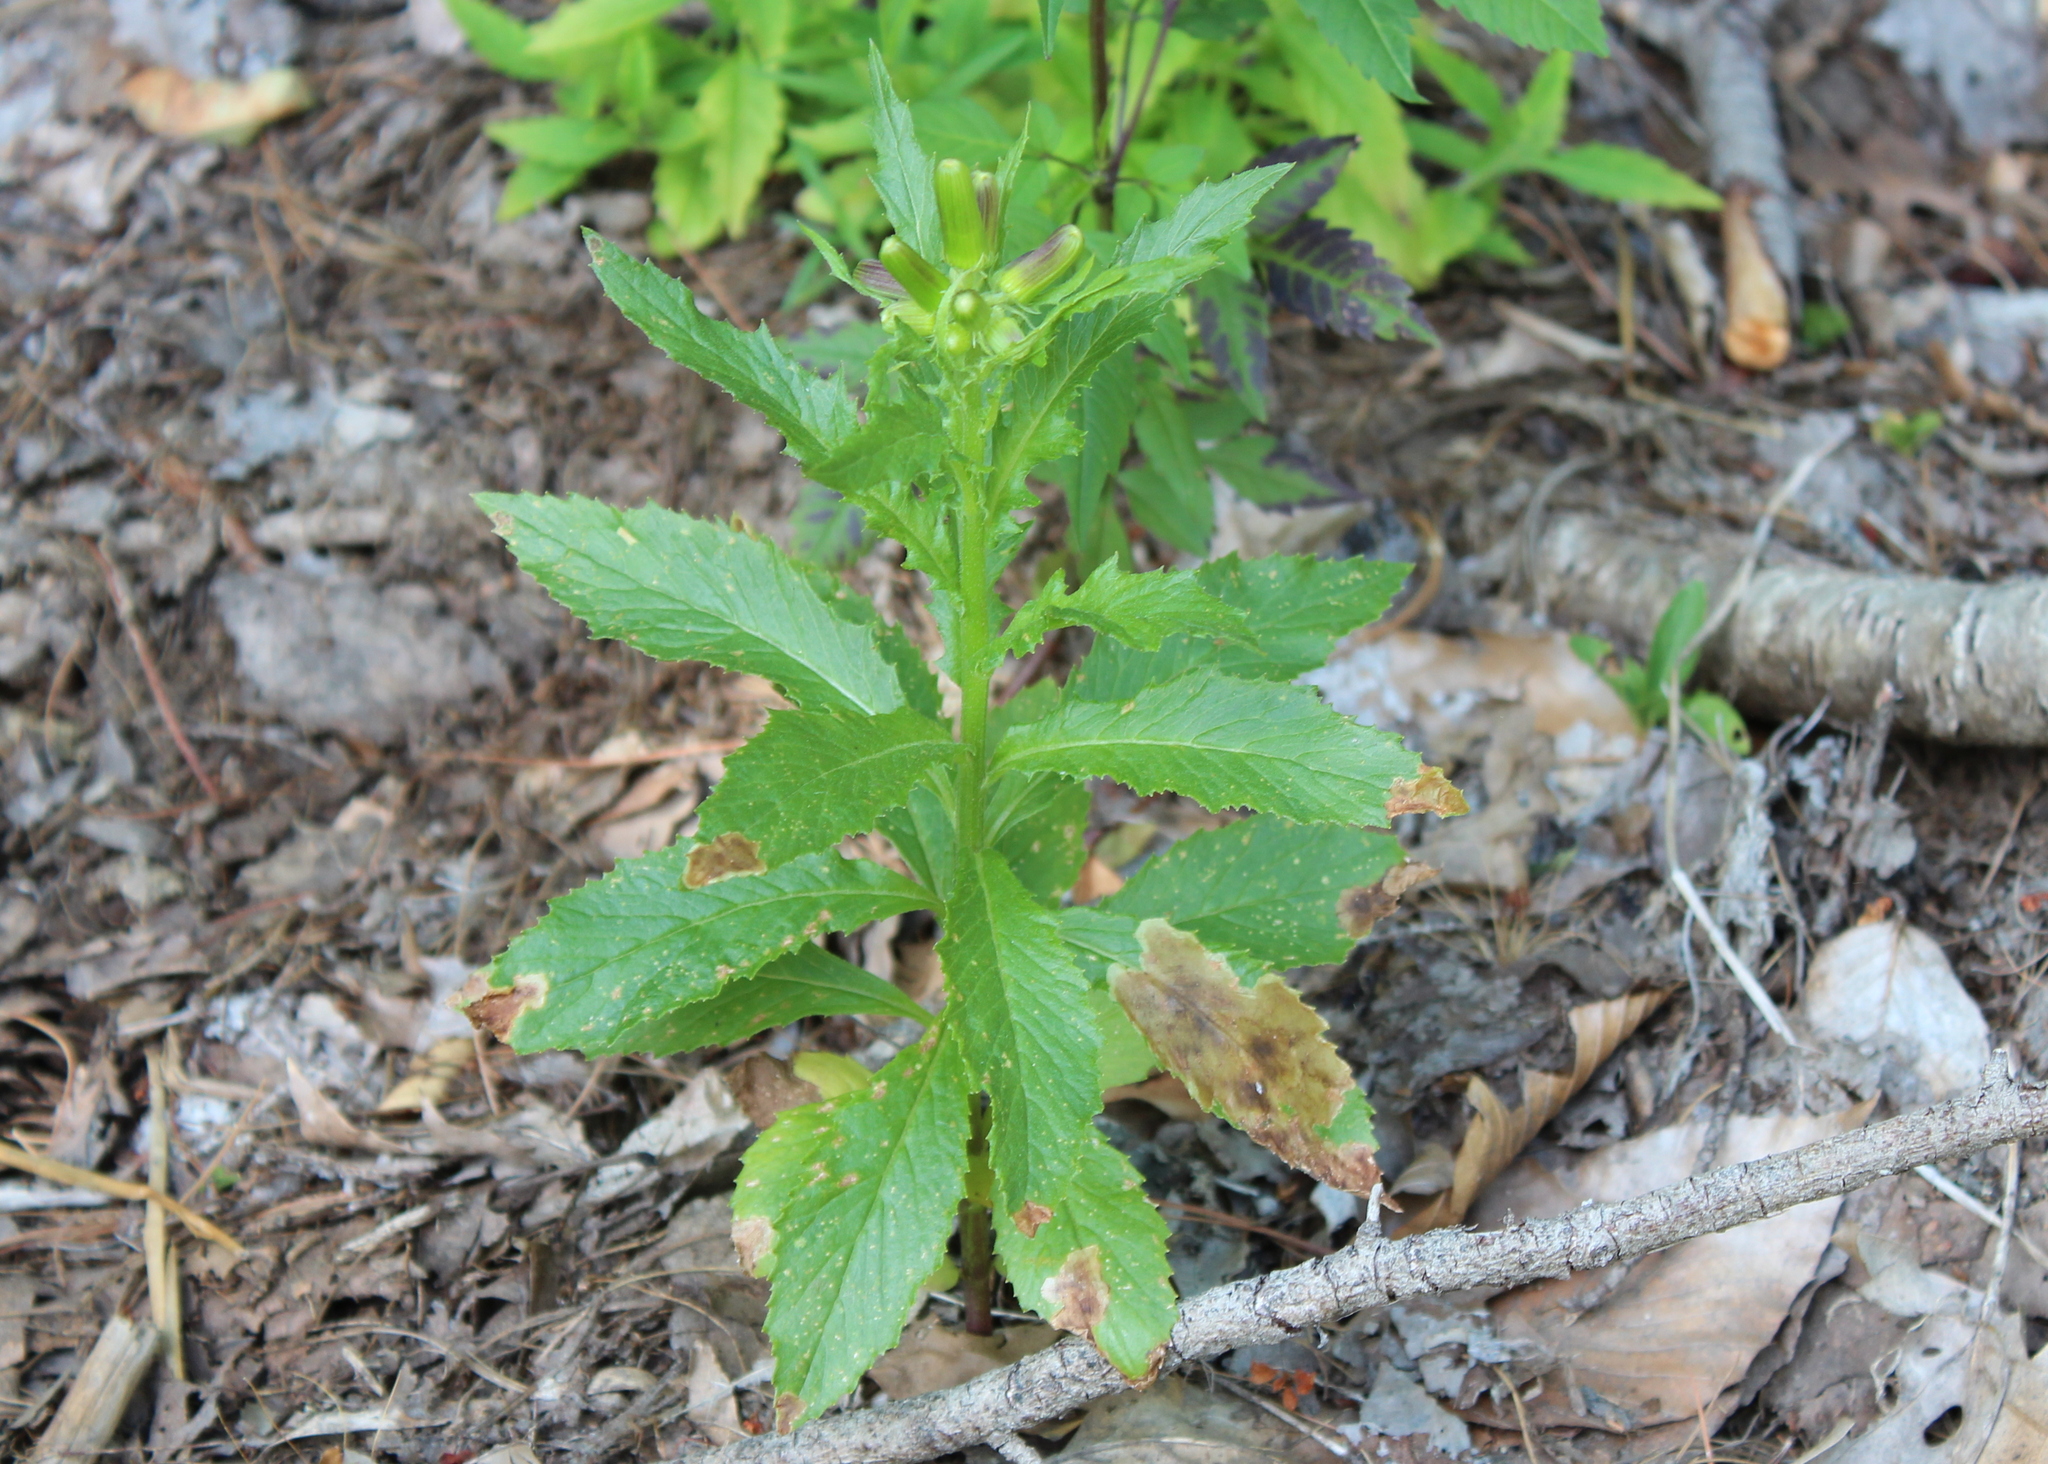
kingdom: Plantae
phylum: Tracheophyta
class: Magnoliopsida
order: Asterales
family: Asteraceae
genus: Erechtites
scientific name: Erechtites hieraciifolius
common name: American burnweed
